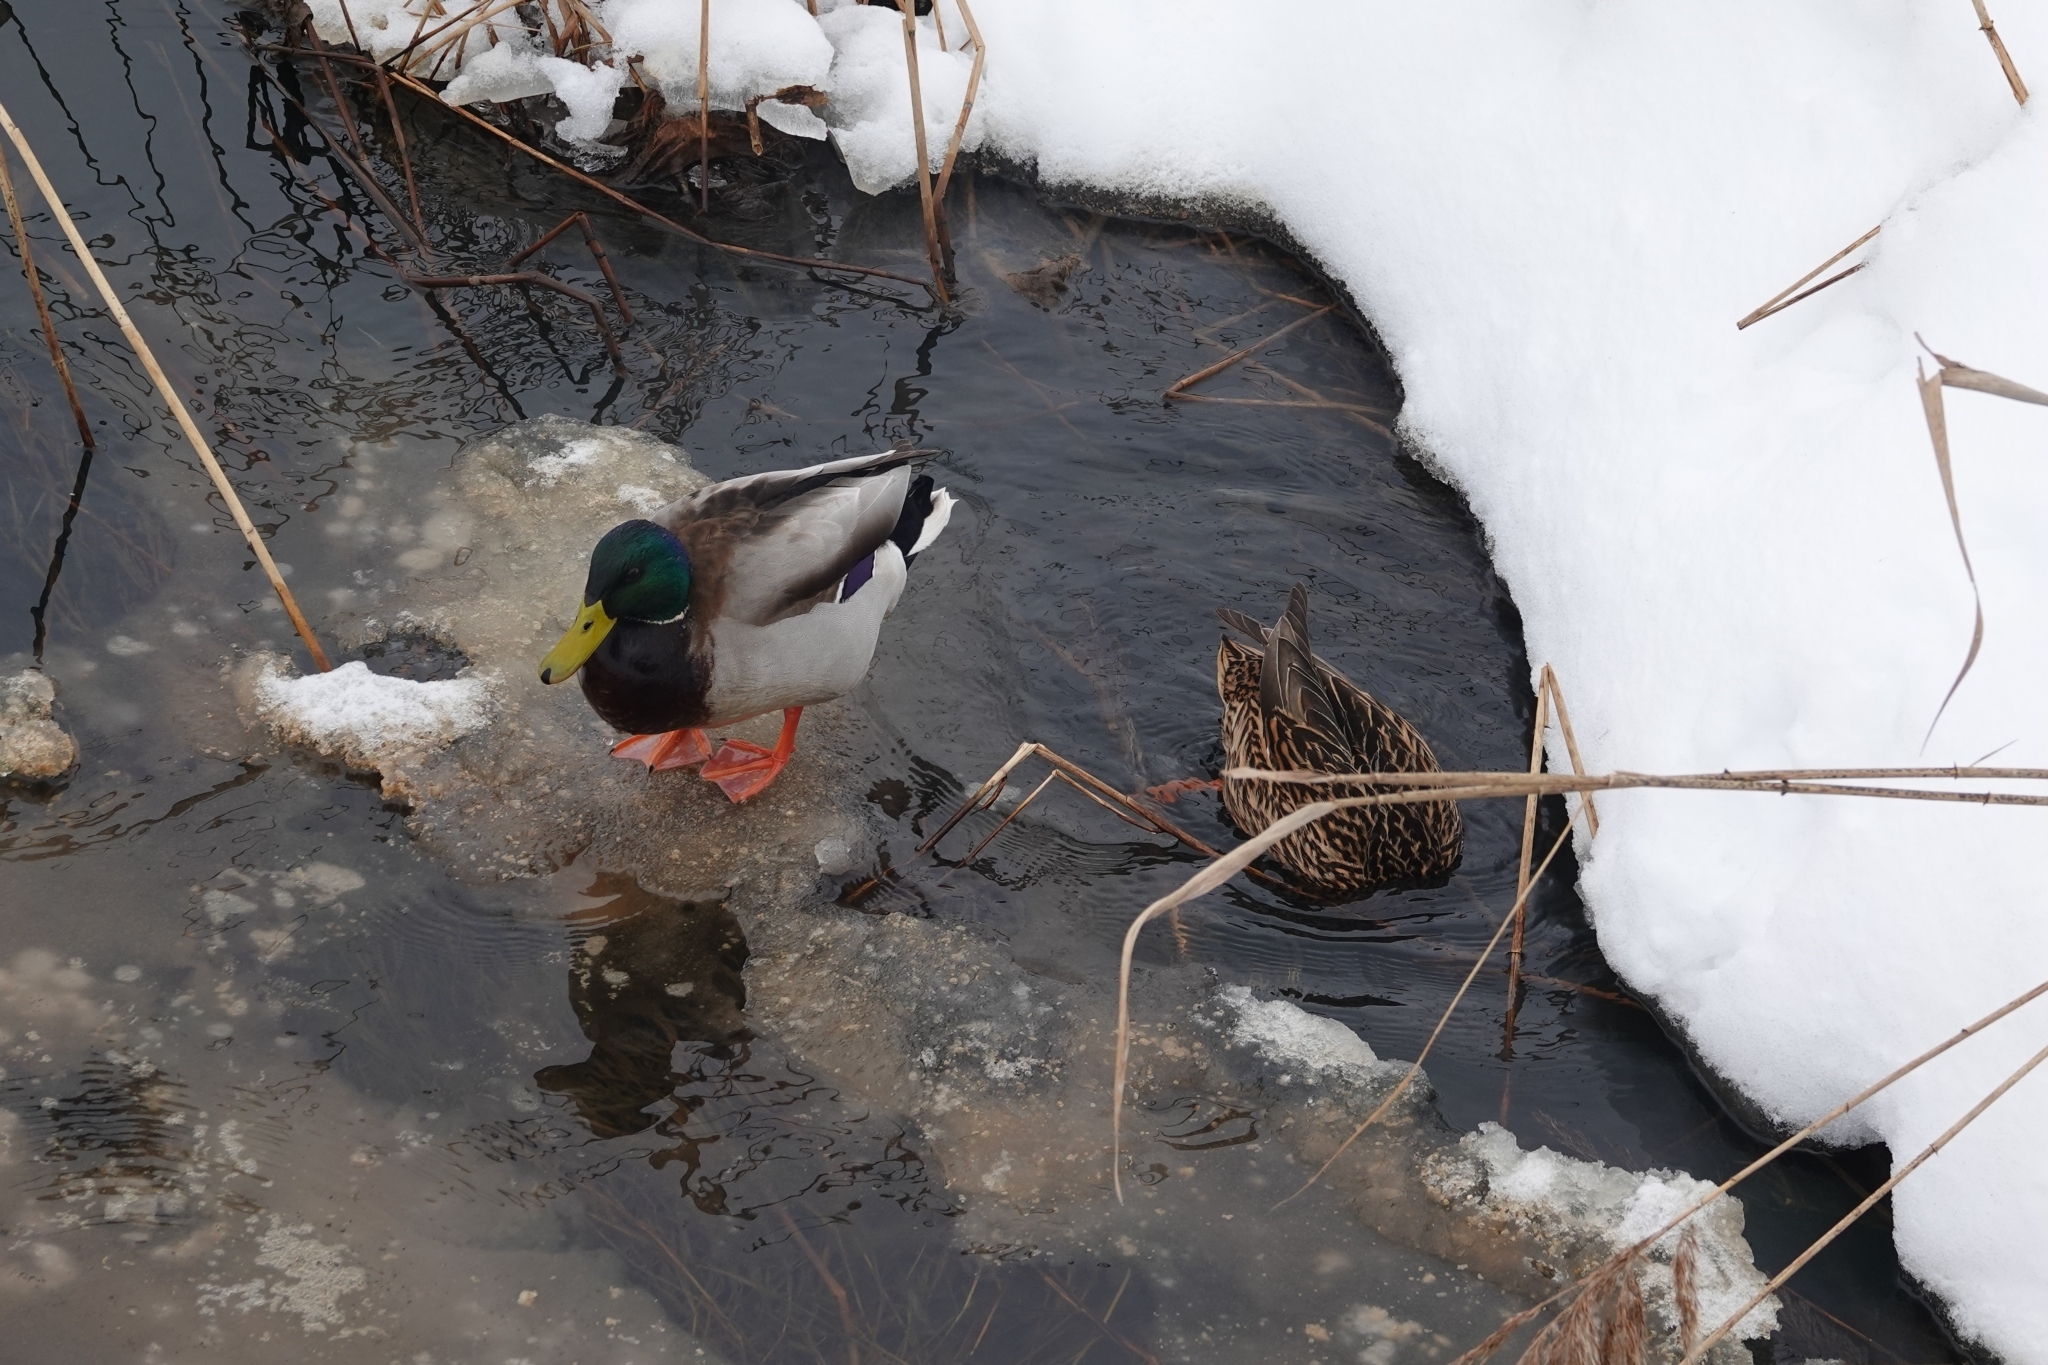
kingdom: Animalia
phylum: Chordata
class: Aves
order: Anseriformes
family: Anatidae
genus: Anas
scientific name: Anas platyrhynchos
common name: Mallard
